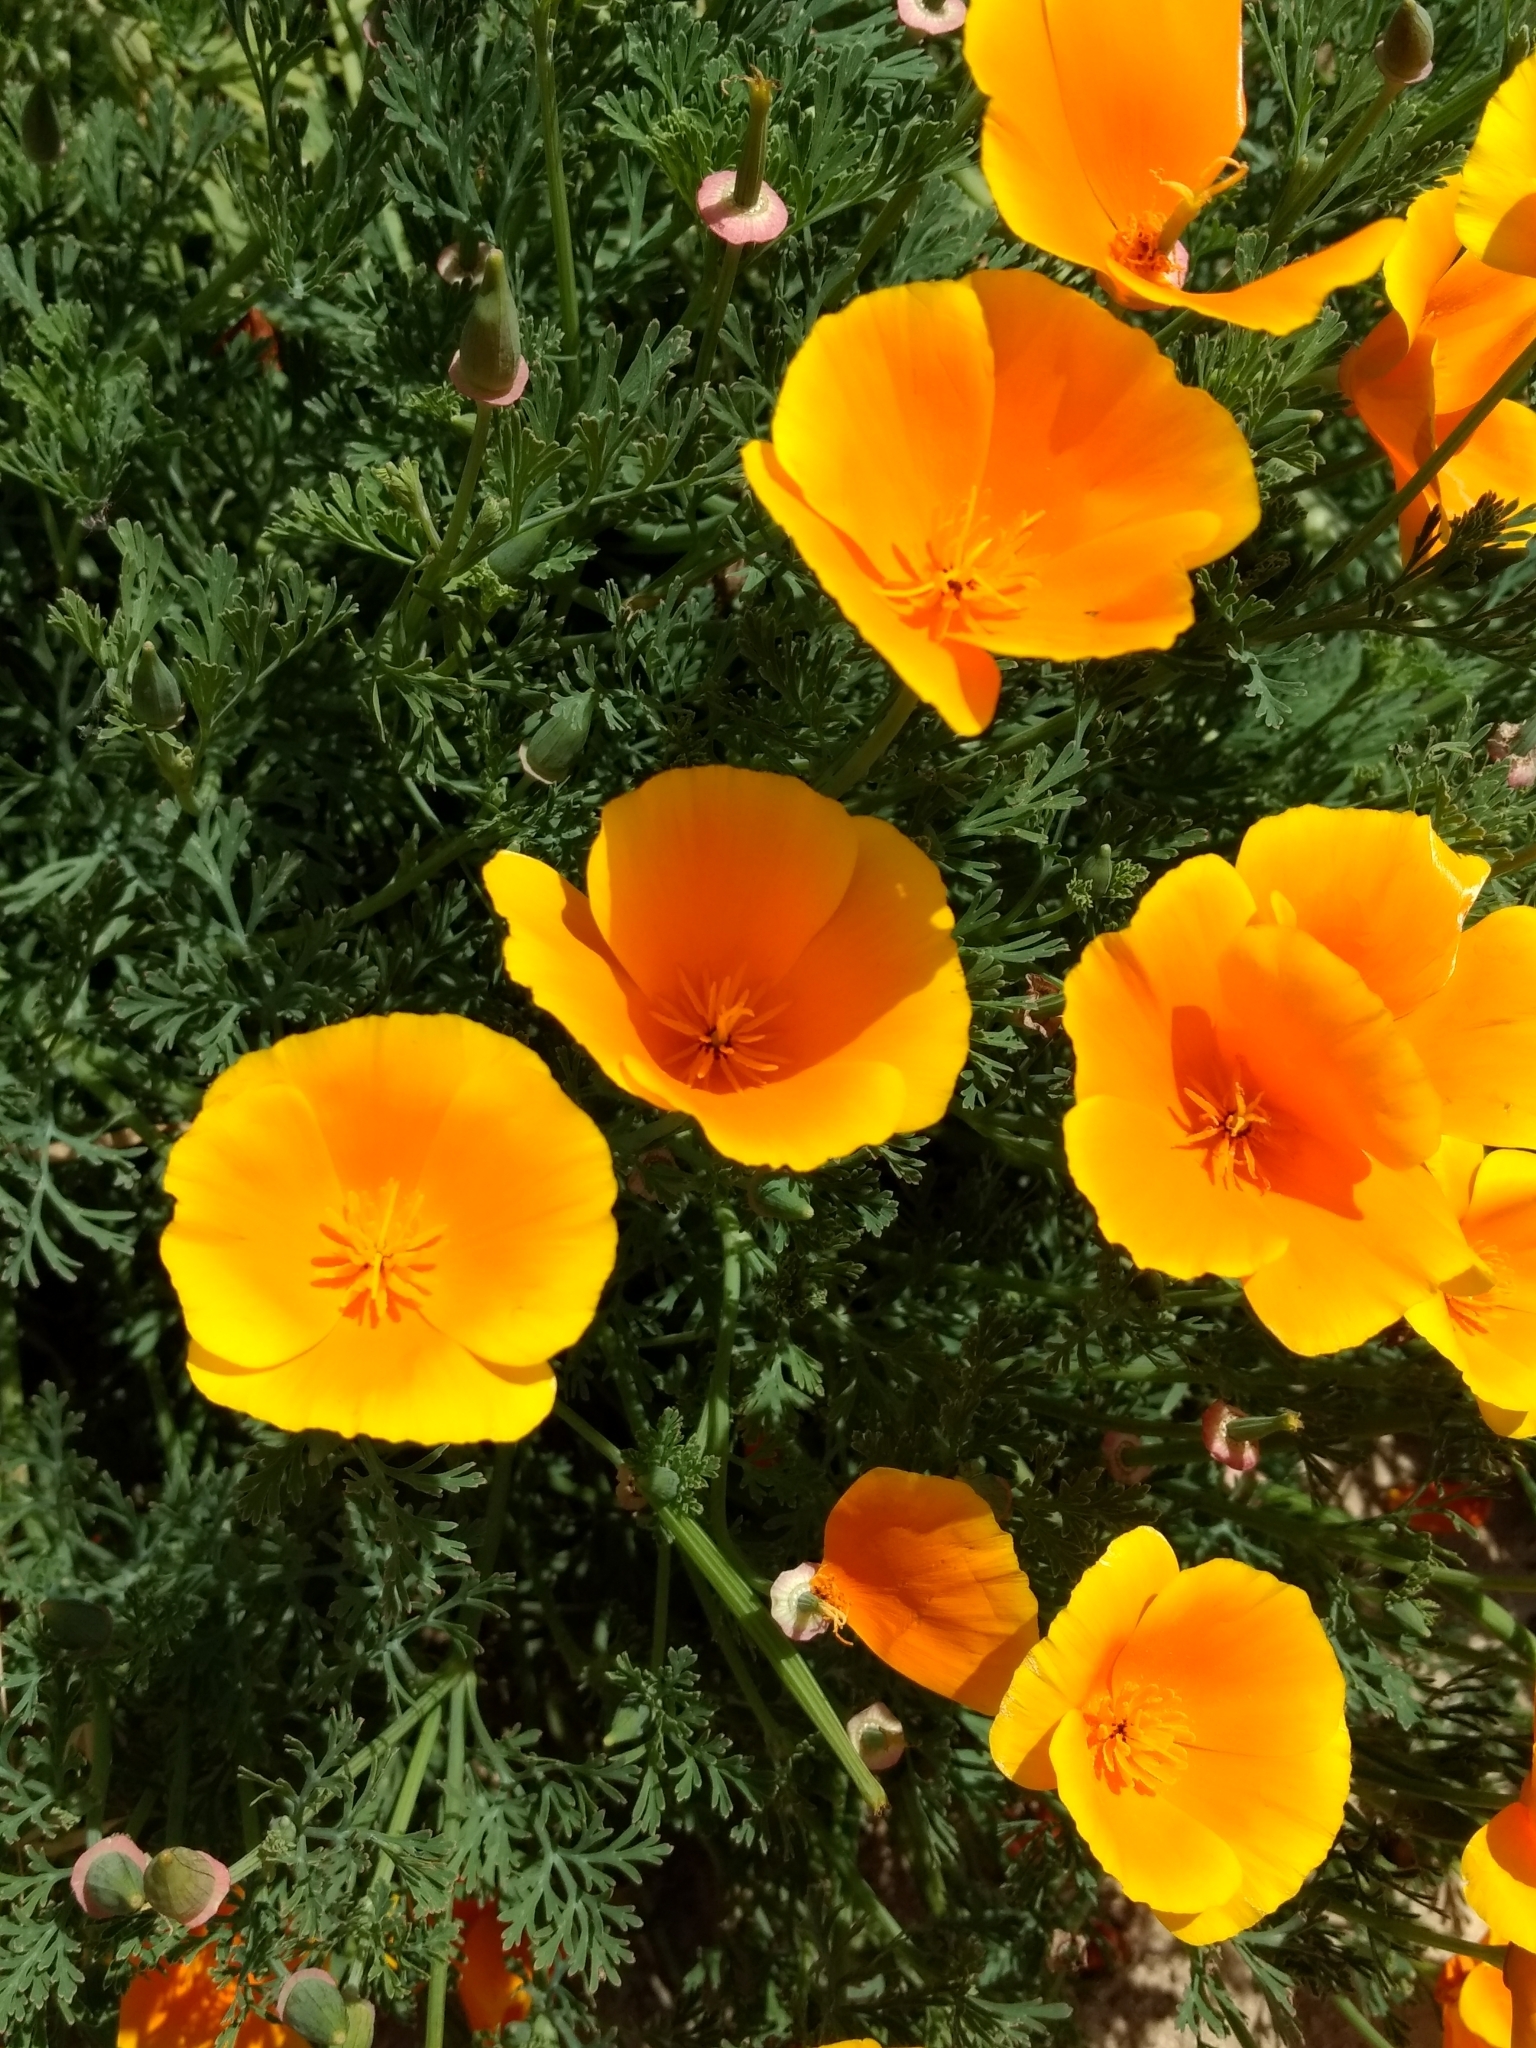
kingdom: Plantae
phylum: Tracheophyta
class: Magnoliopsida
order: Ranunculales
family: Papaveraceae
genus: Eschscholzia
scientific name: Eschscholzia californica
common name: California poppy
